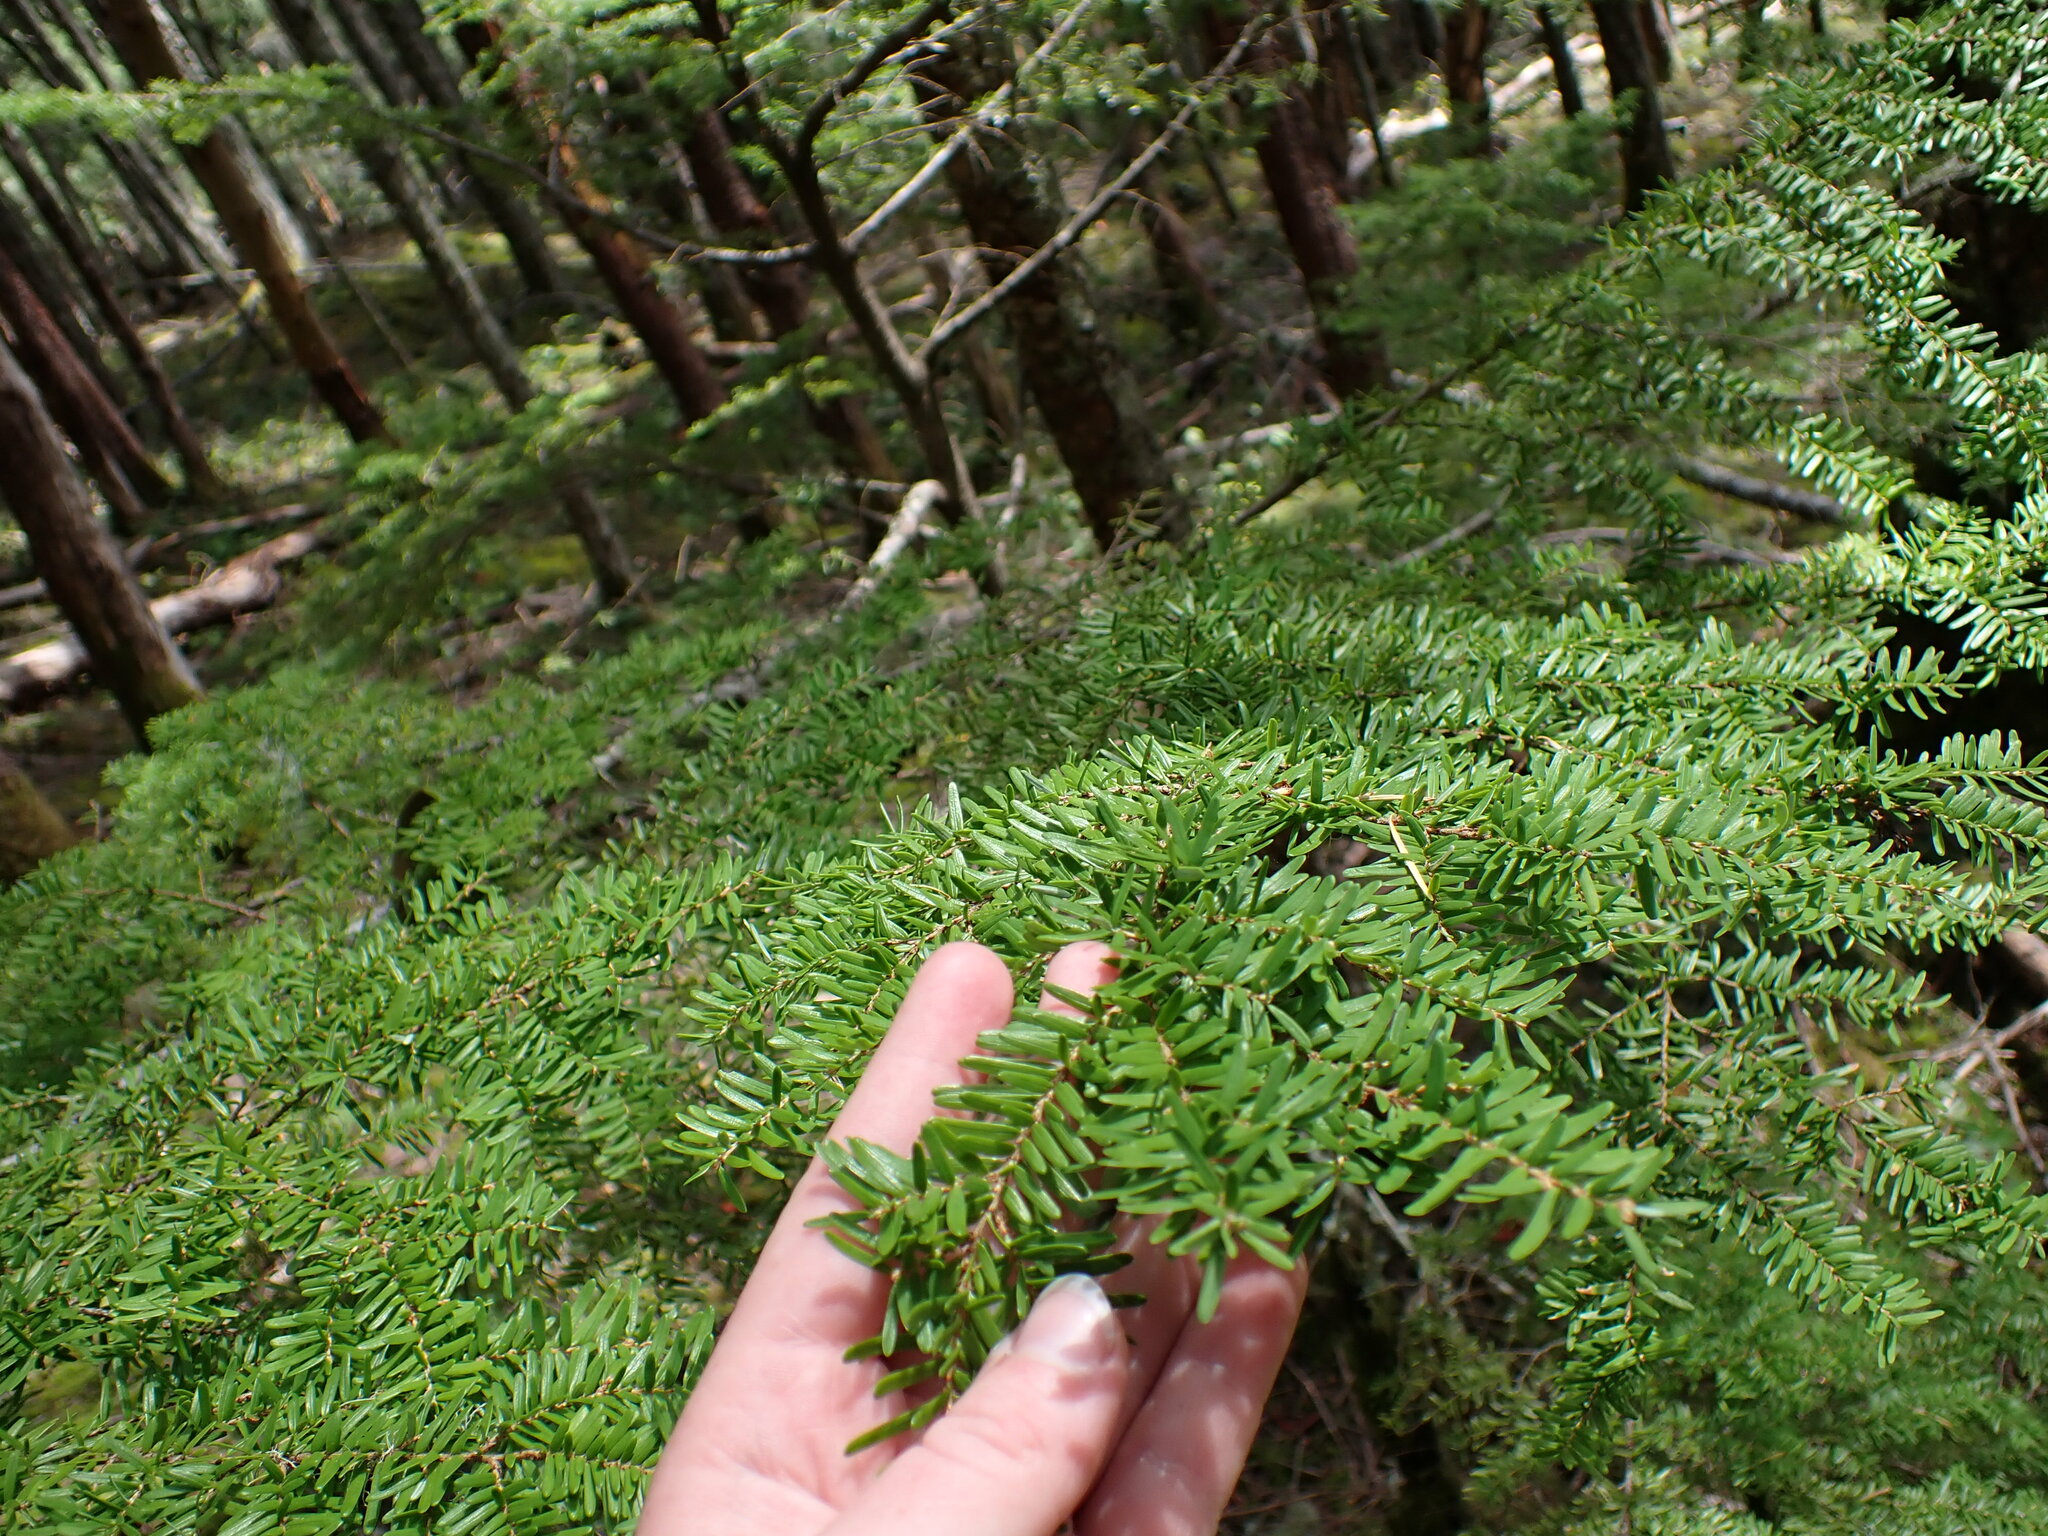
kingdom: Plantae
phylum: Tracheophyta
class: Pinopsida
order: Pinales
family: Pinaceae
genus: Tsuga
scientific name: Tsuga heterophylla
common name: Western hemlock
